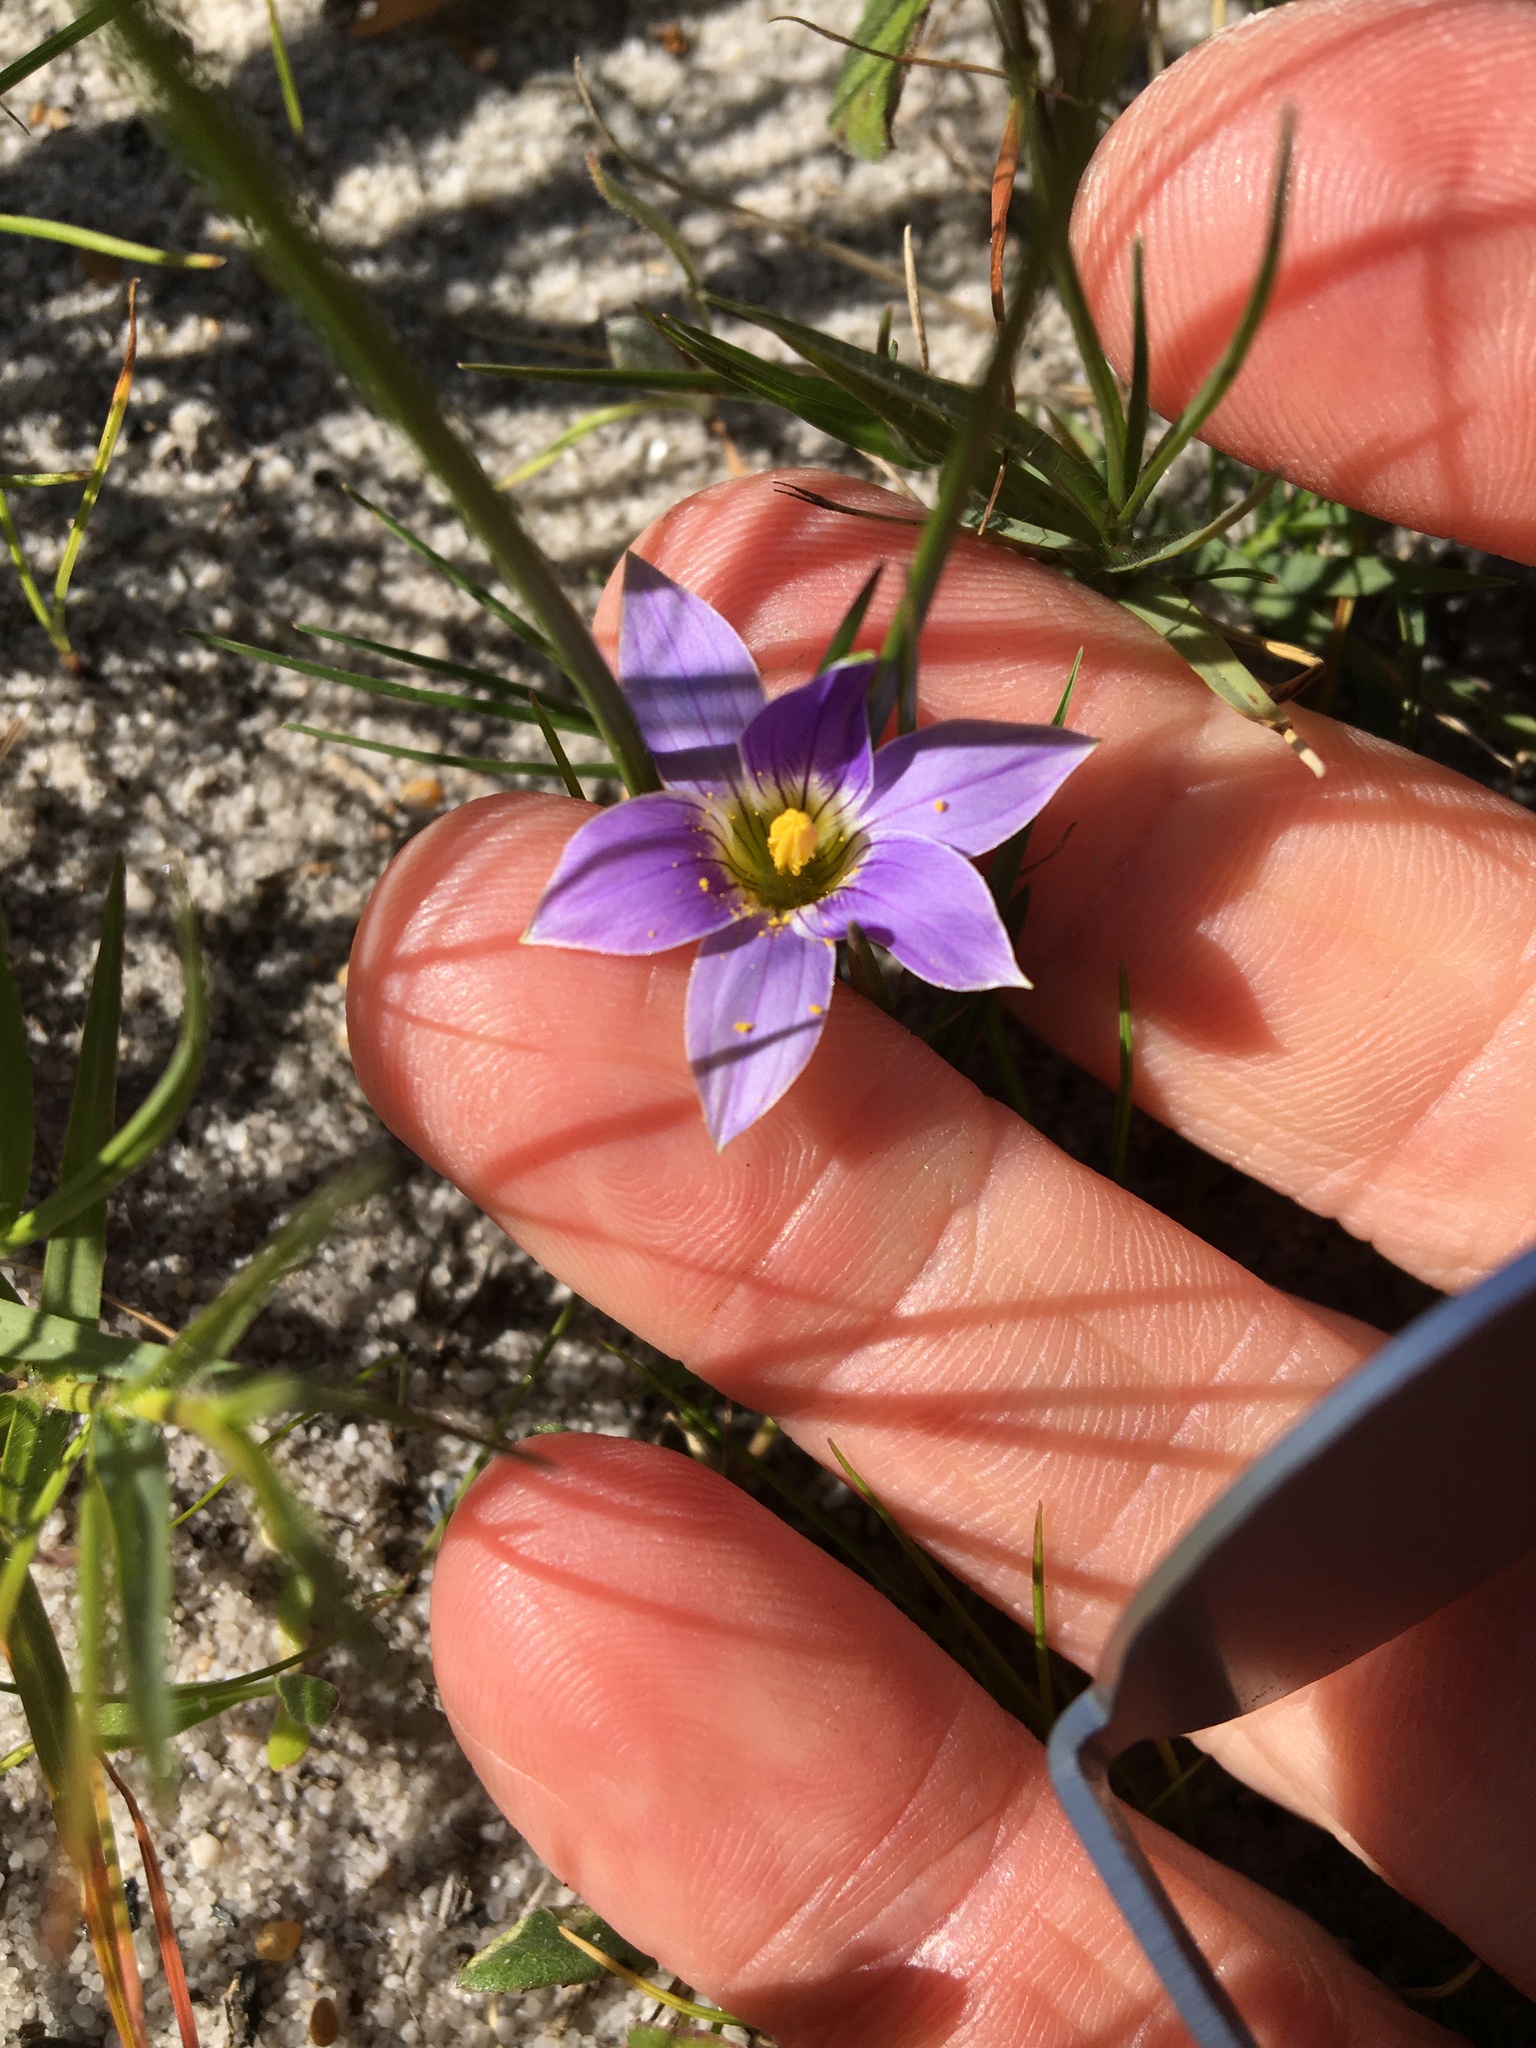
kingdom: Plantae
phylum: Tracheophyta
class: Liliopsida
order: Asparagales
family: Iridaceae
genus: Romulea
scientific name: Romulea tabularis
